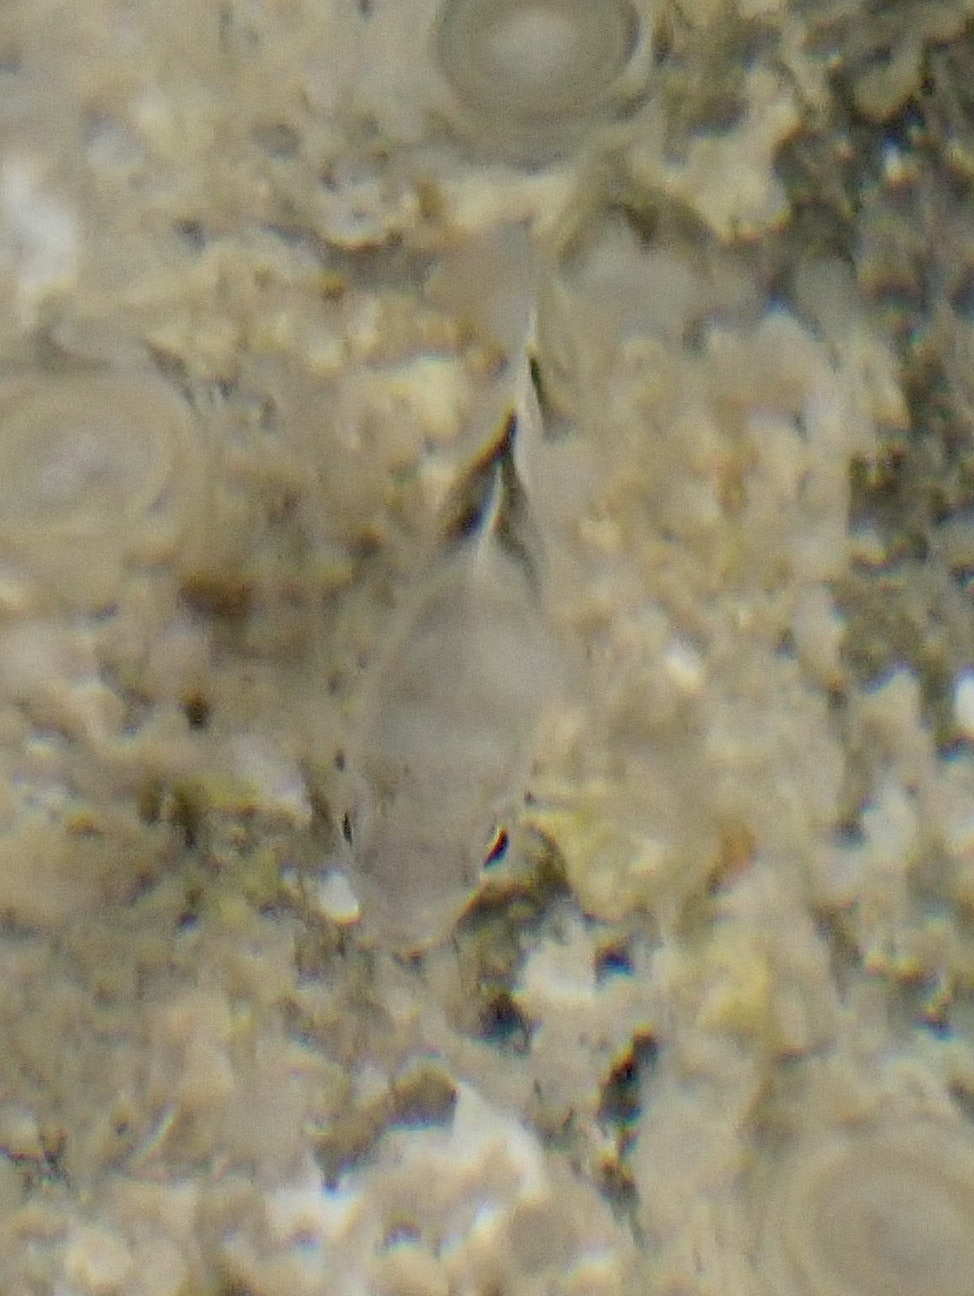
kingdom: Animalia
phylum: Chordata
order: Perciformes
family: Pomacentridae
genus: Abudefduf
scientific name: Abudefduf sordidus
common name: Blackspot sergeant
